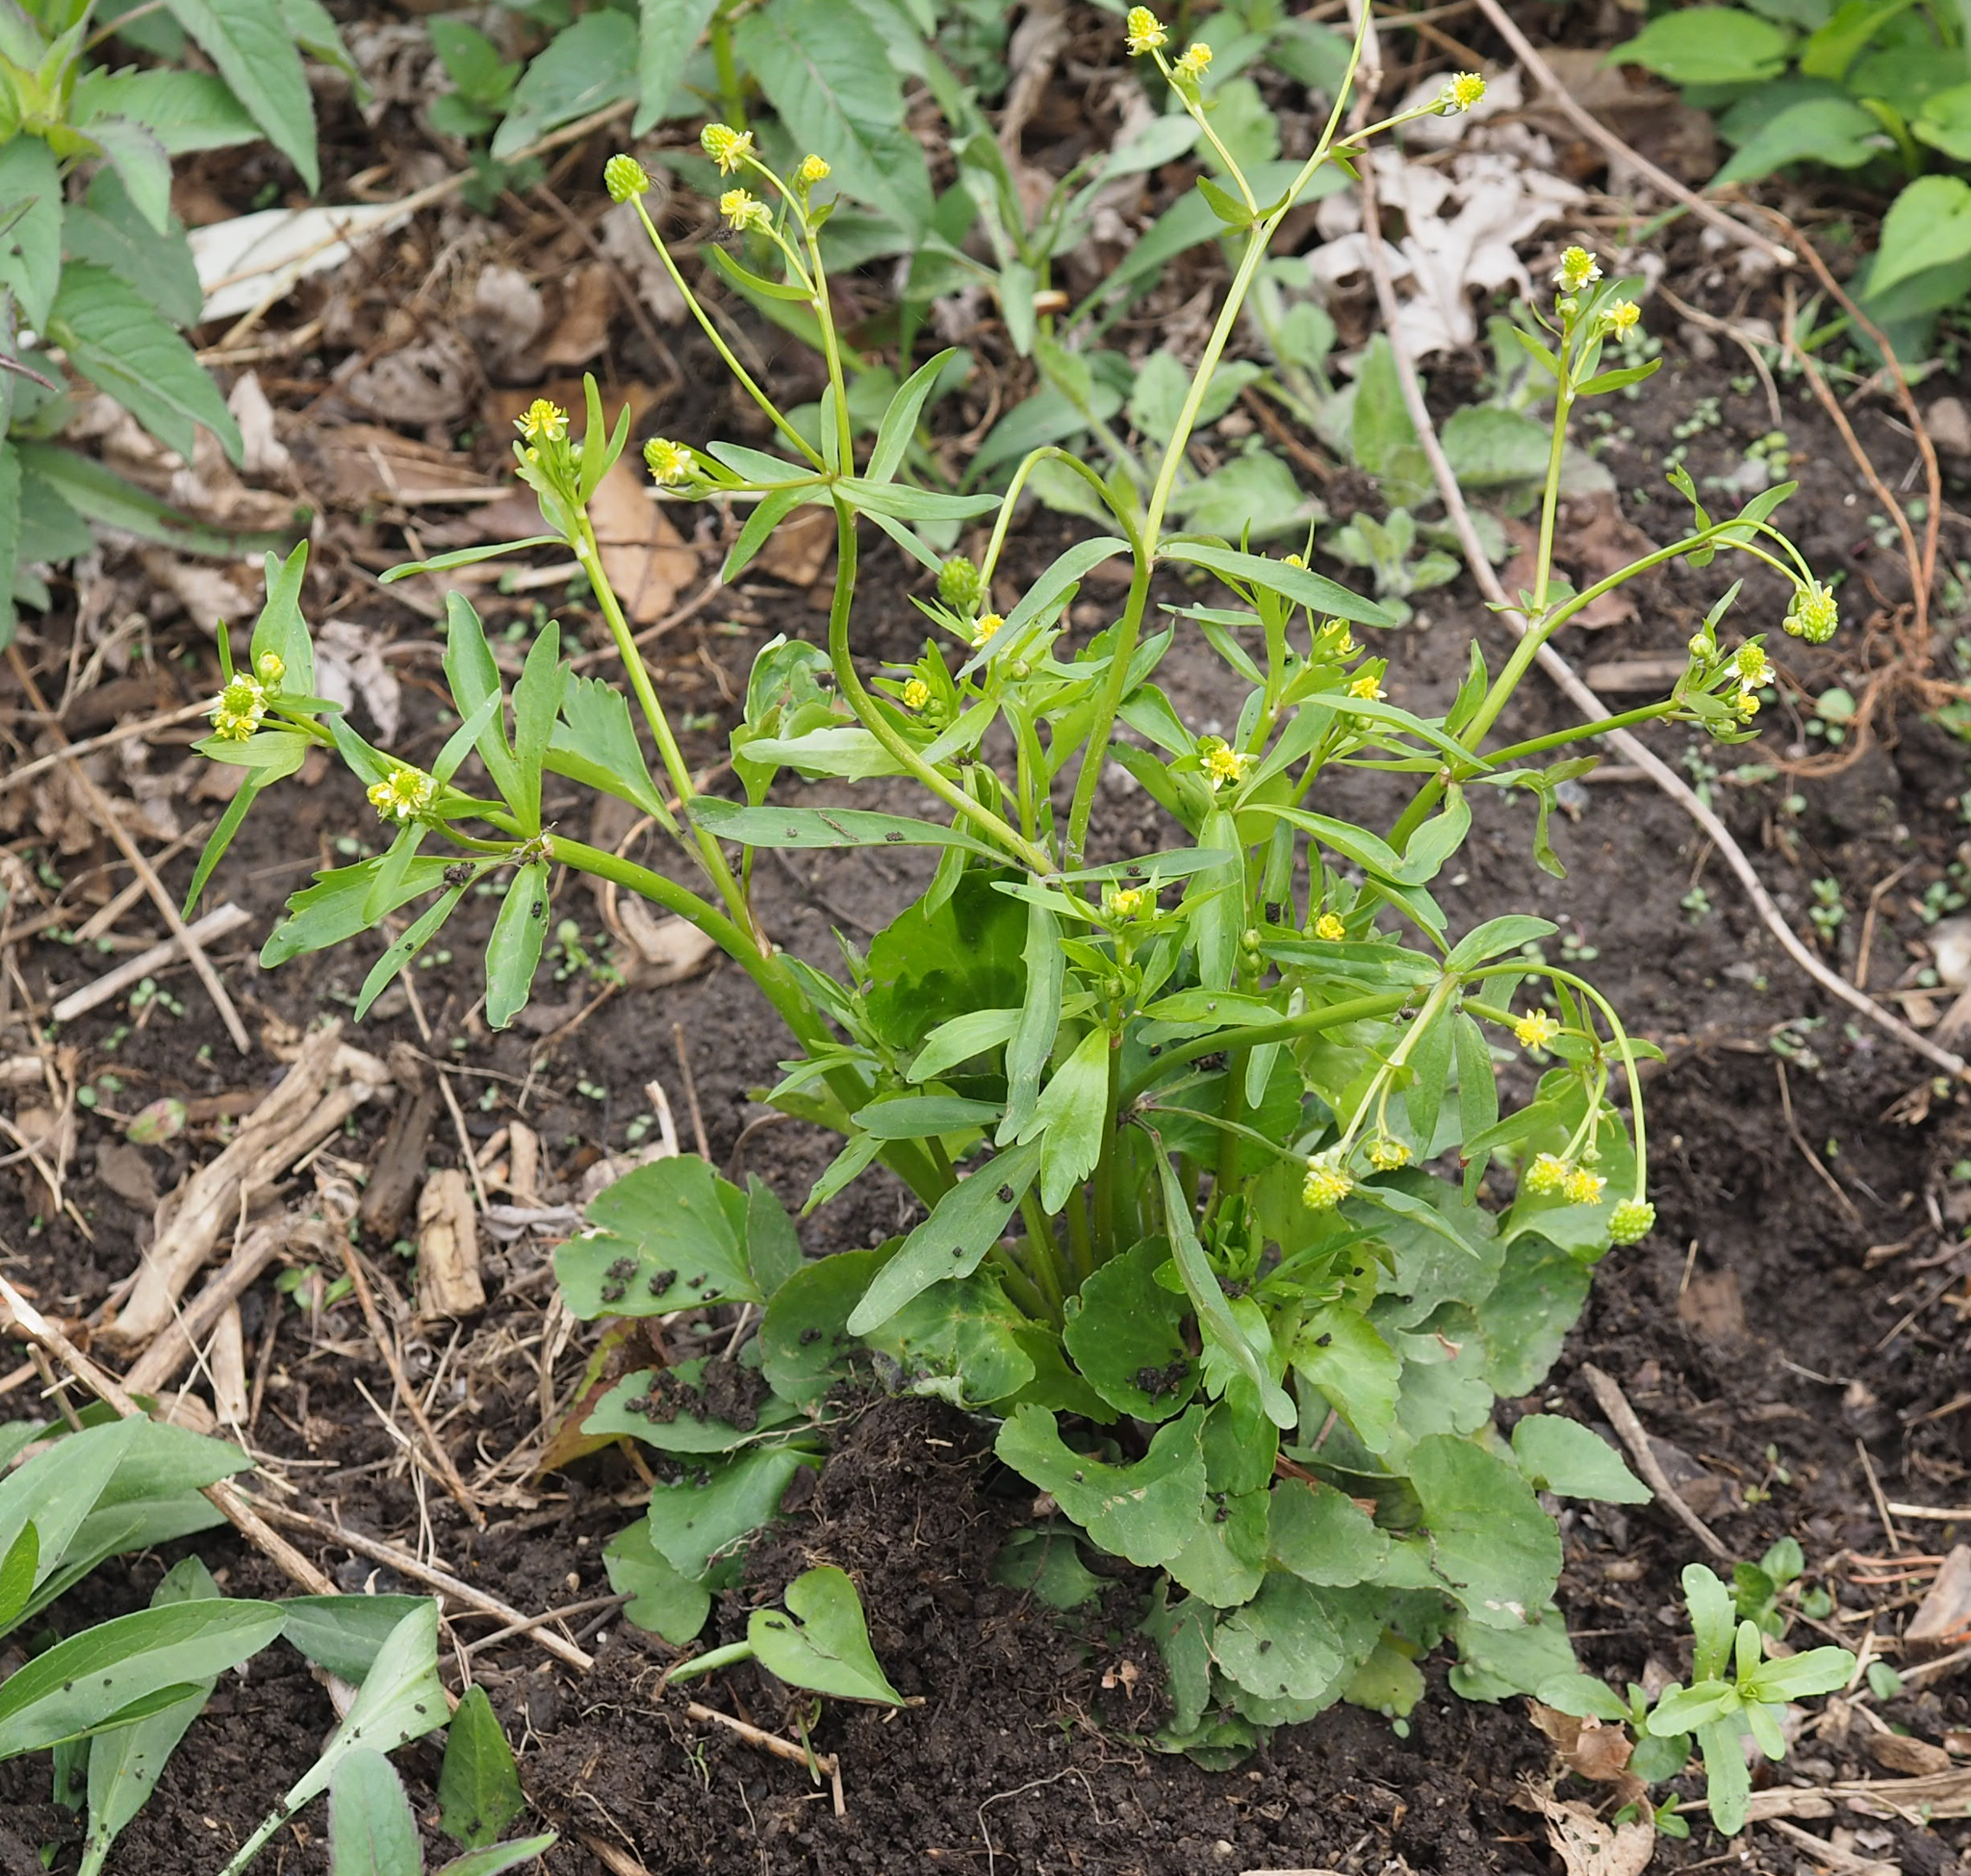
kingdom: Plantae
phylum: Tracheophyta
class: Magnoliopsida
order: Ranunculales
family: Ranunculaceae
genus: Ranunculus
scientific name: Ranunculus abortivus
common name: Early wood buttercup
